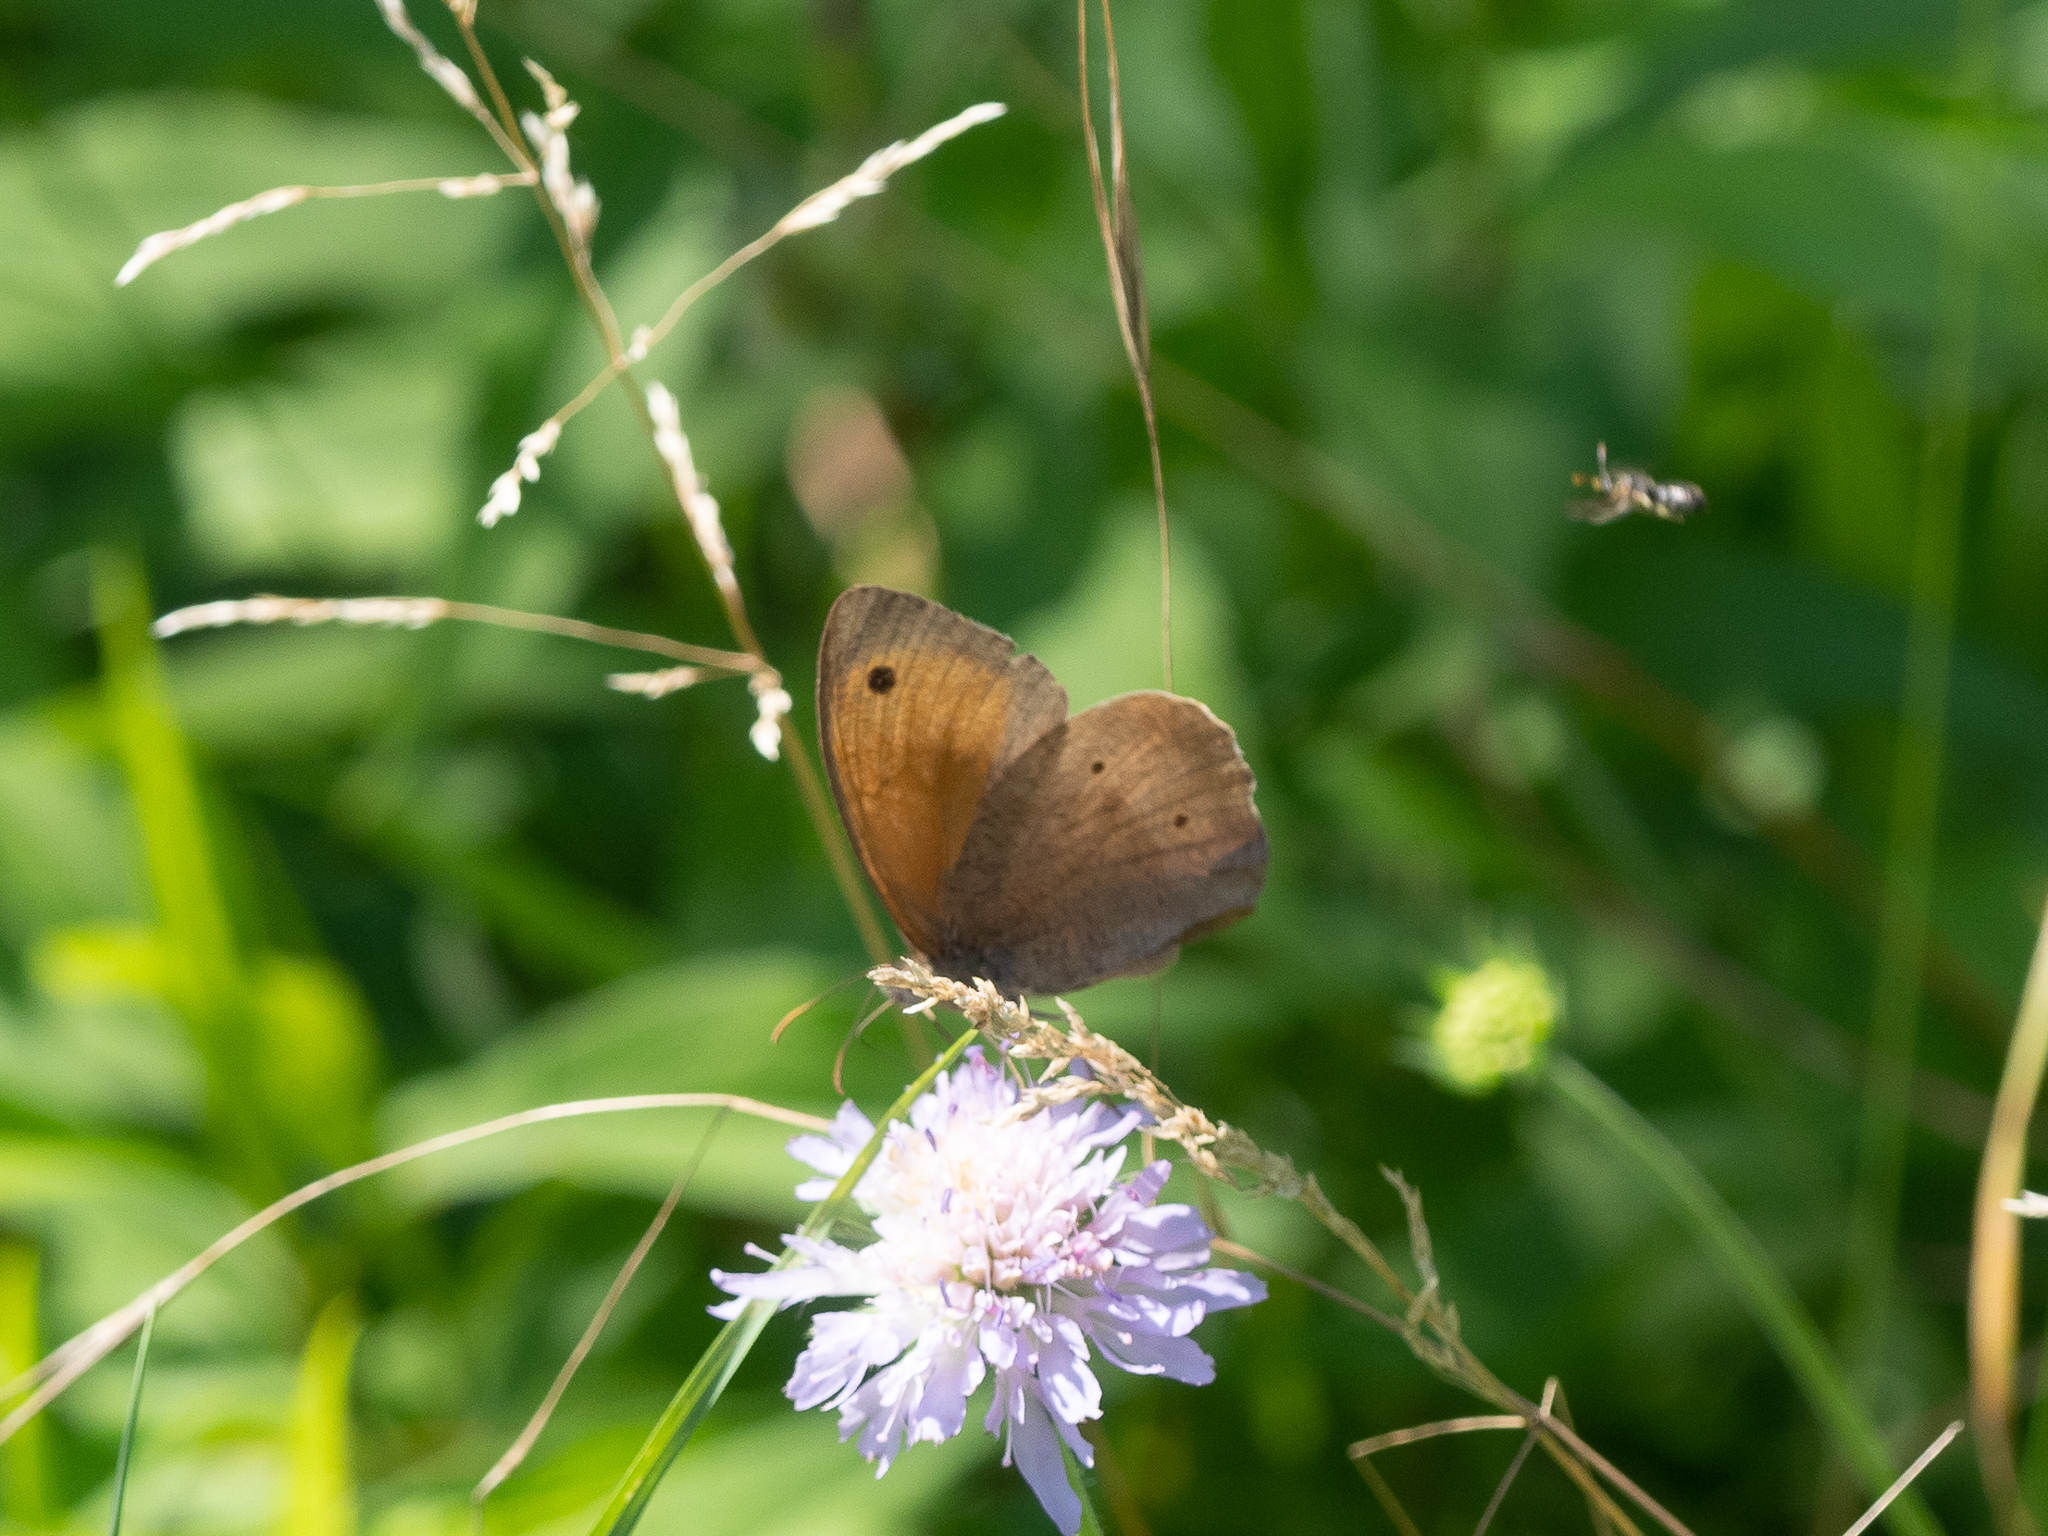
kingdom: Animalia
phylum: Arthropoda
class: Insecta
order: Lepidoptera
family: Nymphalidae
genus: Maniola
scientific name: Maniola jurtina
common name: Meadow brown
